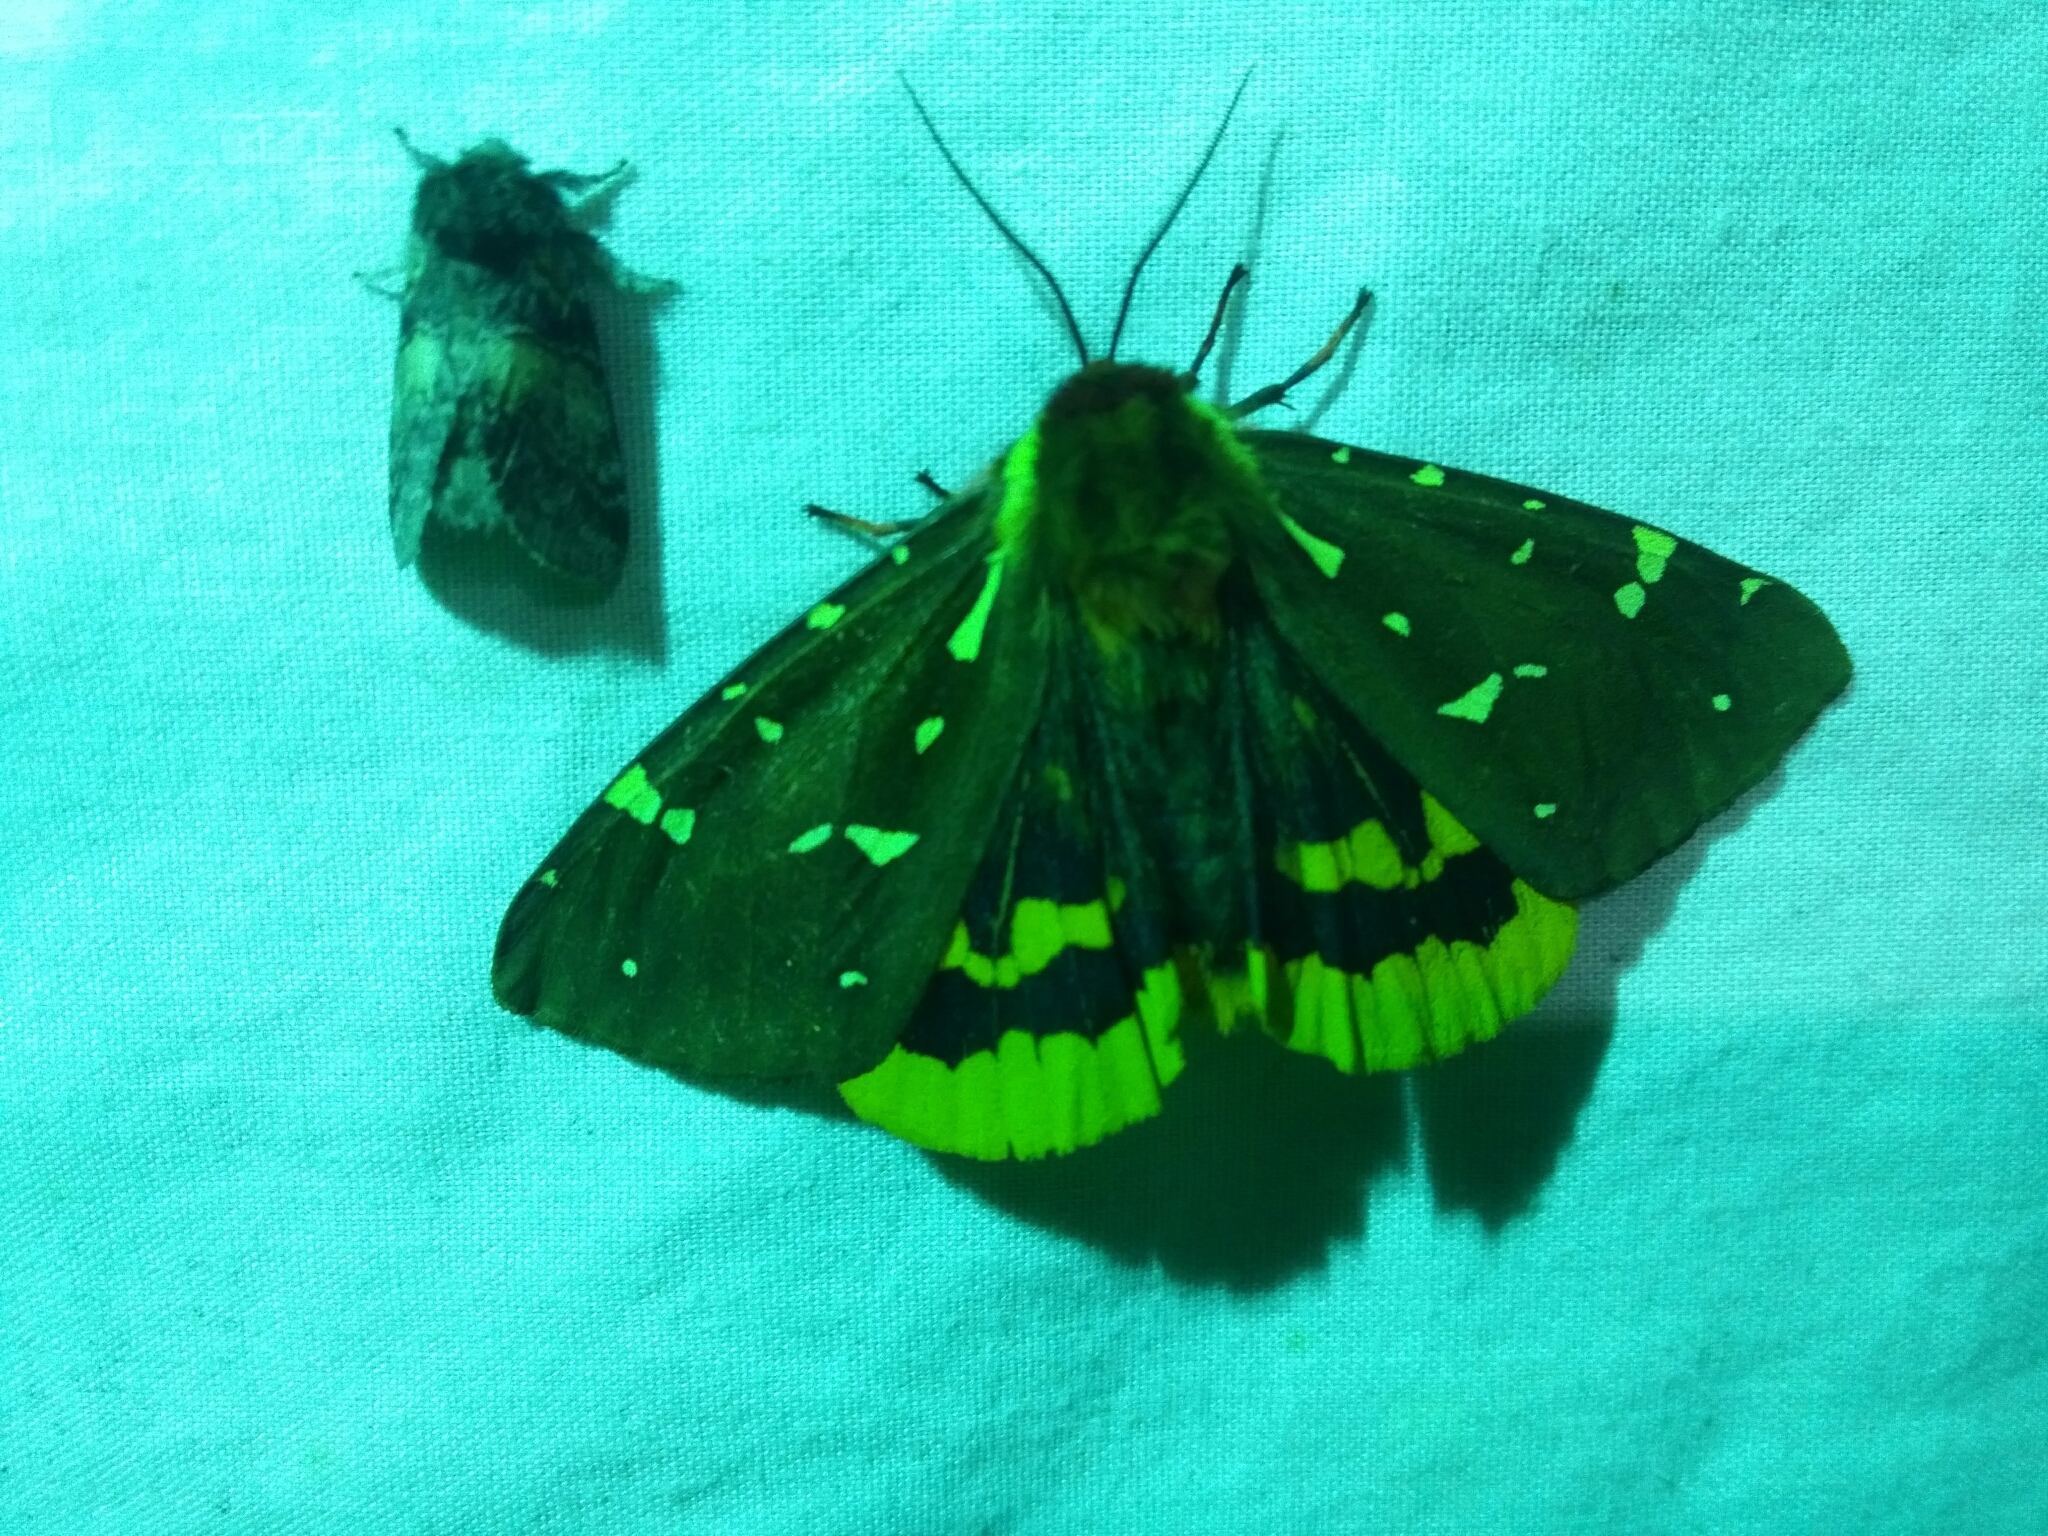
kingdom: Animalia
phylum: Arthropoda
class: Insecta
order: Lepidoptera
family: Erebidae
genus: Arctia
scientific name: Arctia parthenos
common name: St. lawrence tiger moth
